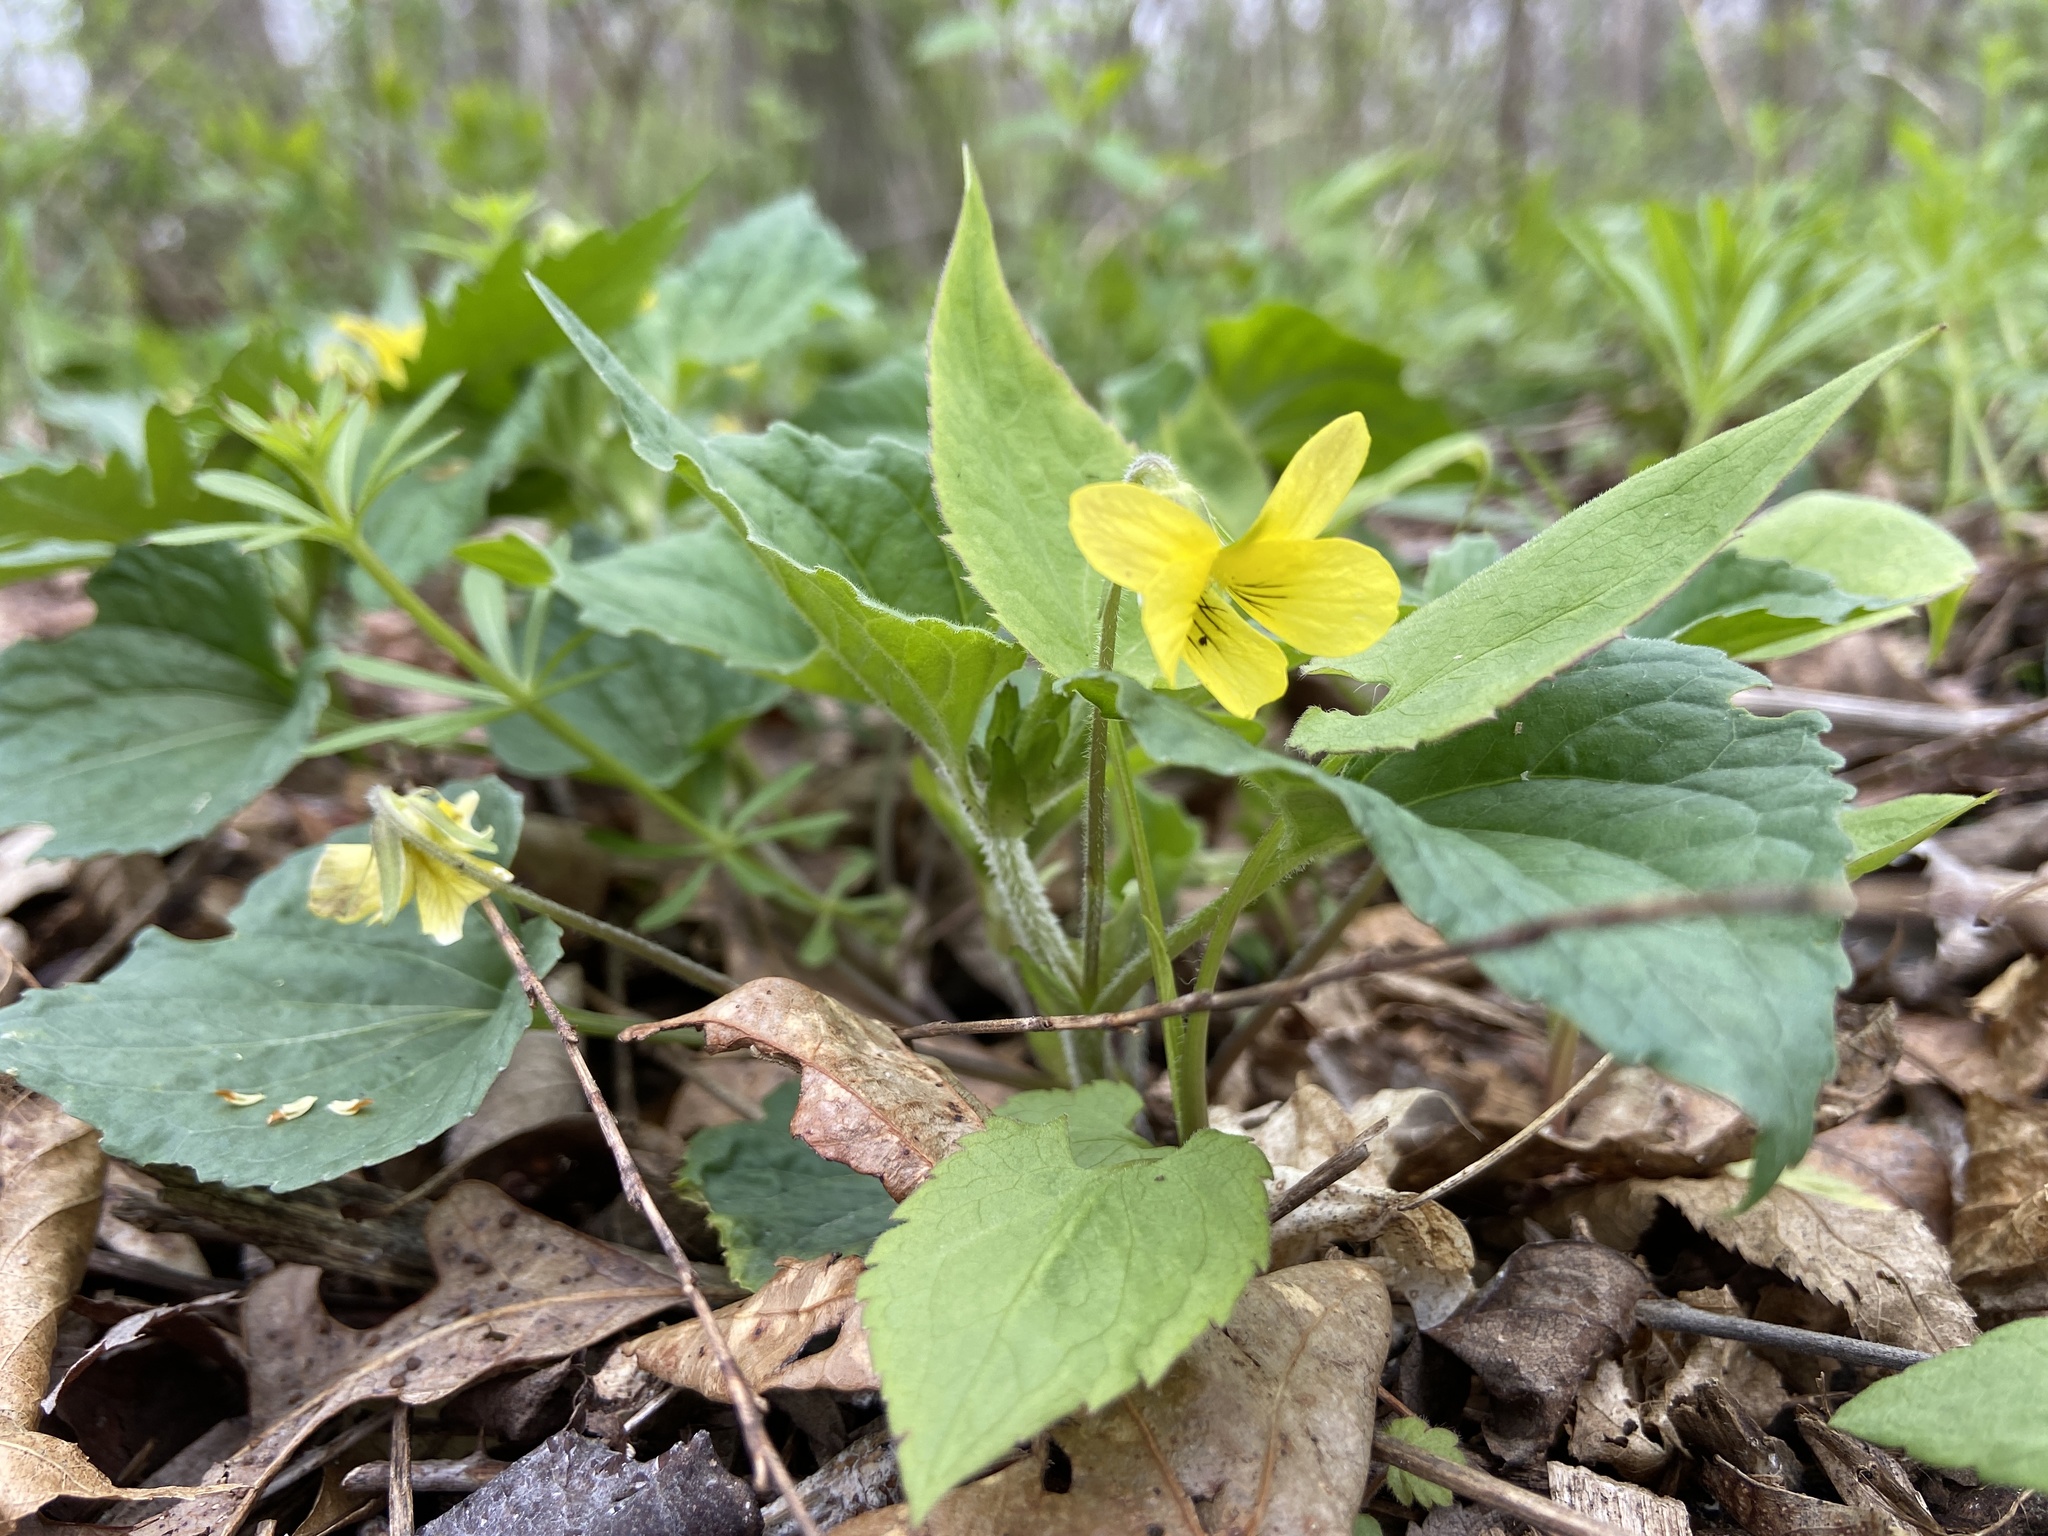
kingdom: Plantae
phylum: Tracheophyta
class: Magnoliopsida
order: Malpighiales
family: Violaceae
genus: Viola
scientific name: Viola eriocarpa
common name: Smooth yellow violet
